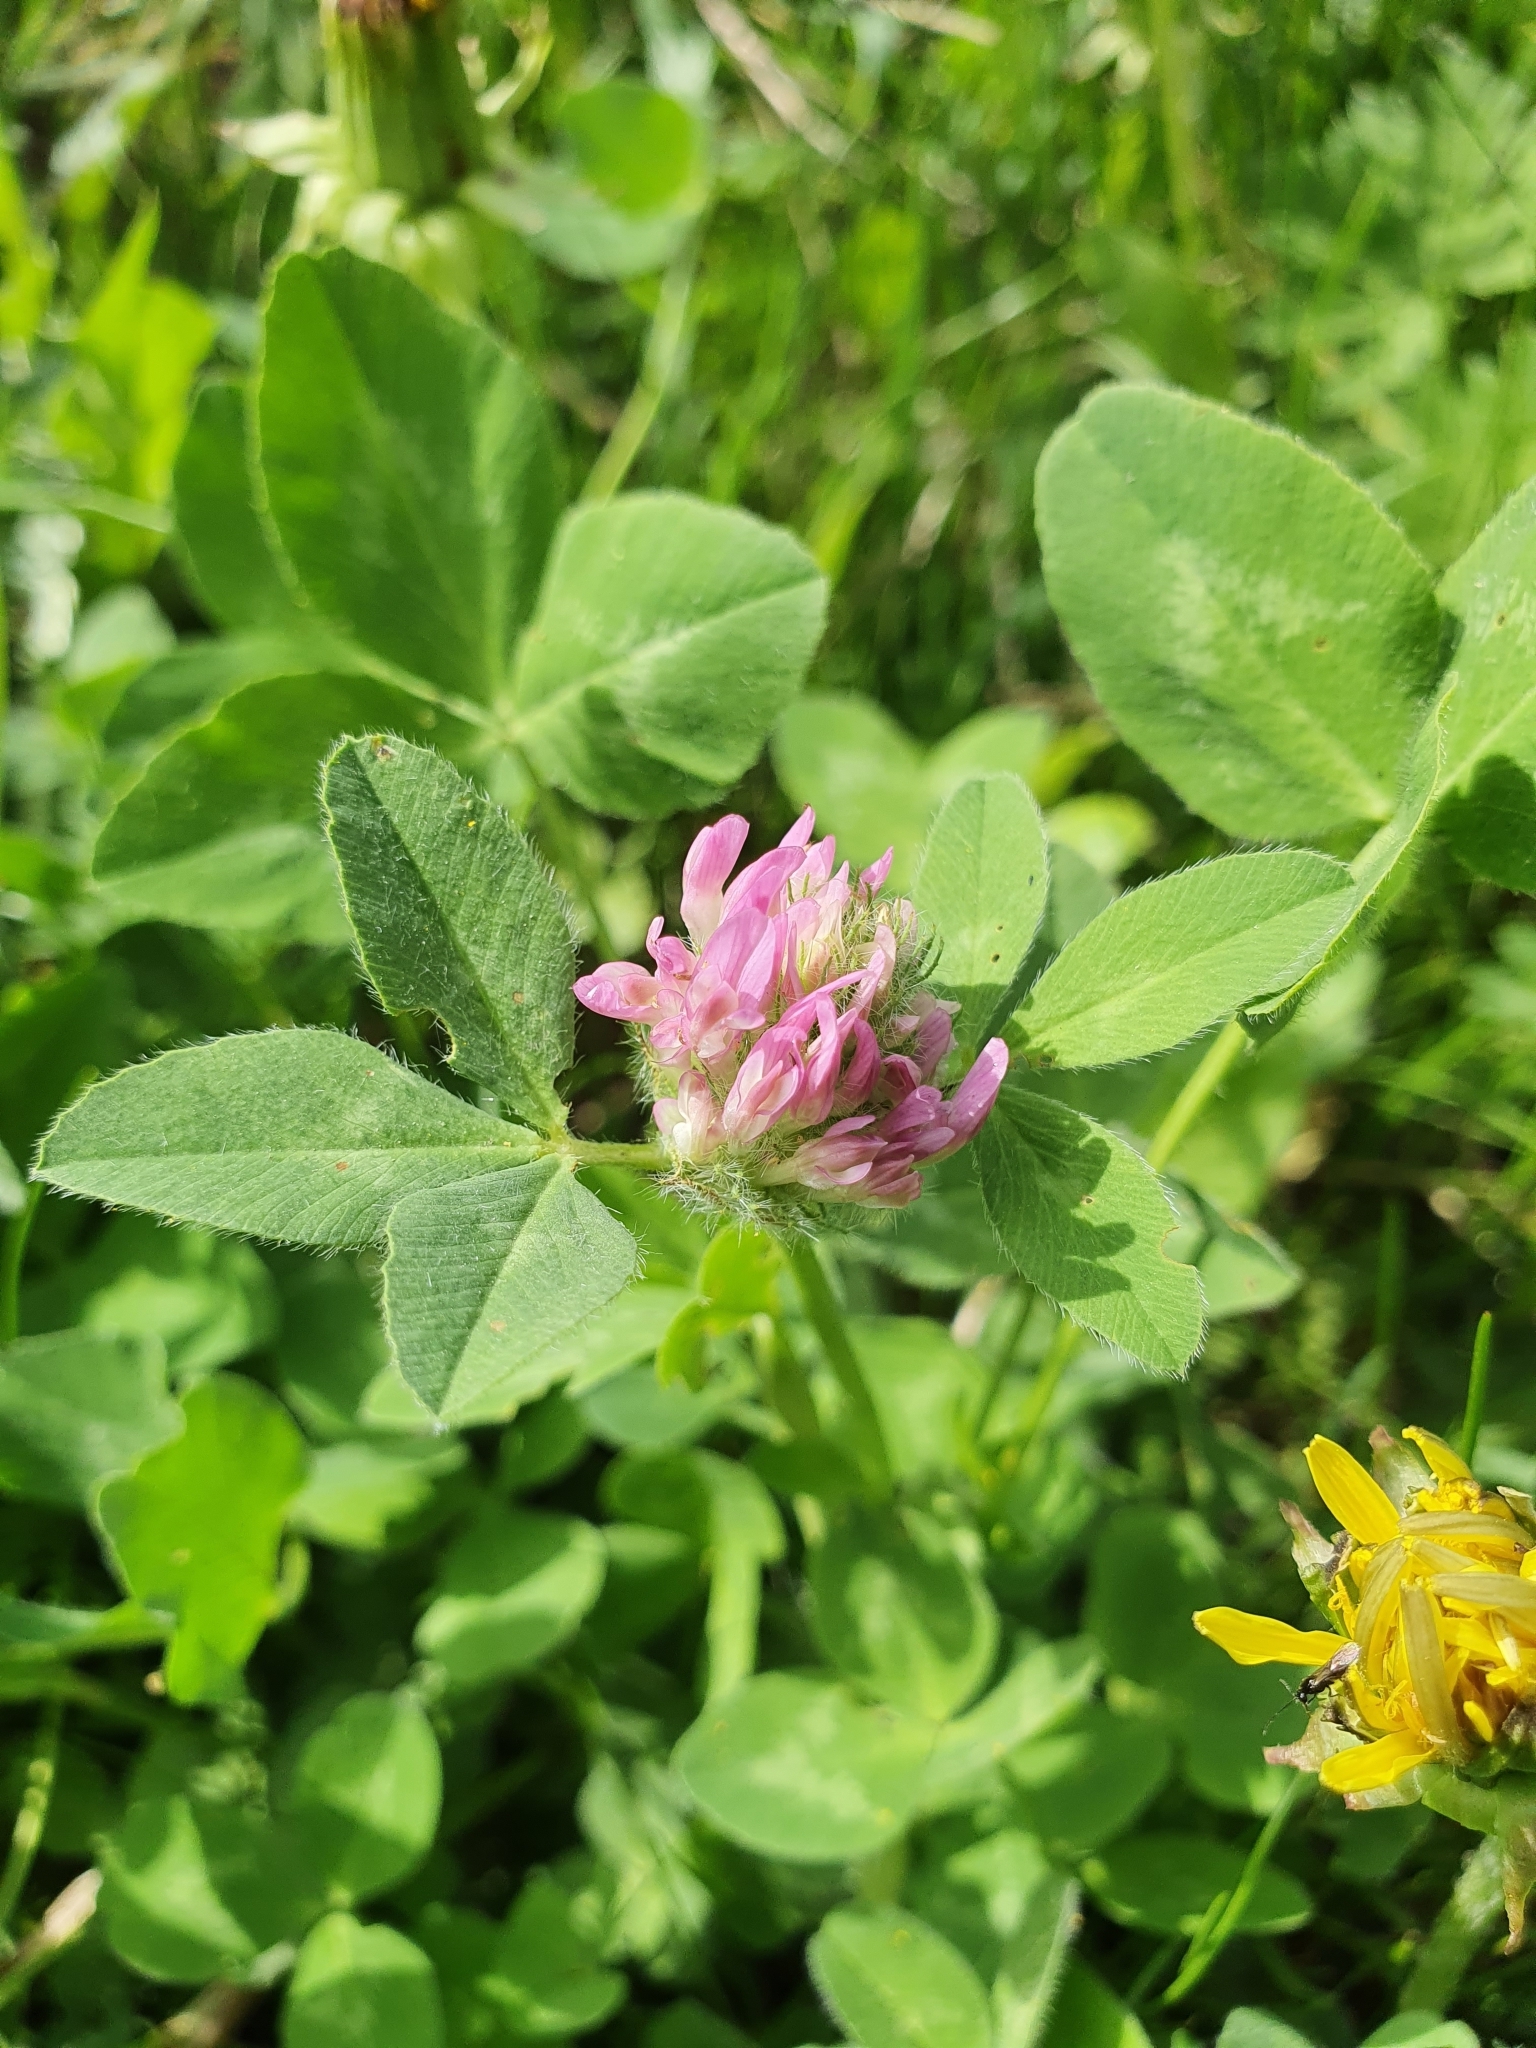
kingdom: Plantae
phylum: Tracheophyta
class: Magnoliopsida
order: Fabales
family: Fabaceae
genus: Trifolium
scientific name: Trifolium pratense
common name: Red clover
